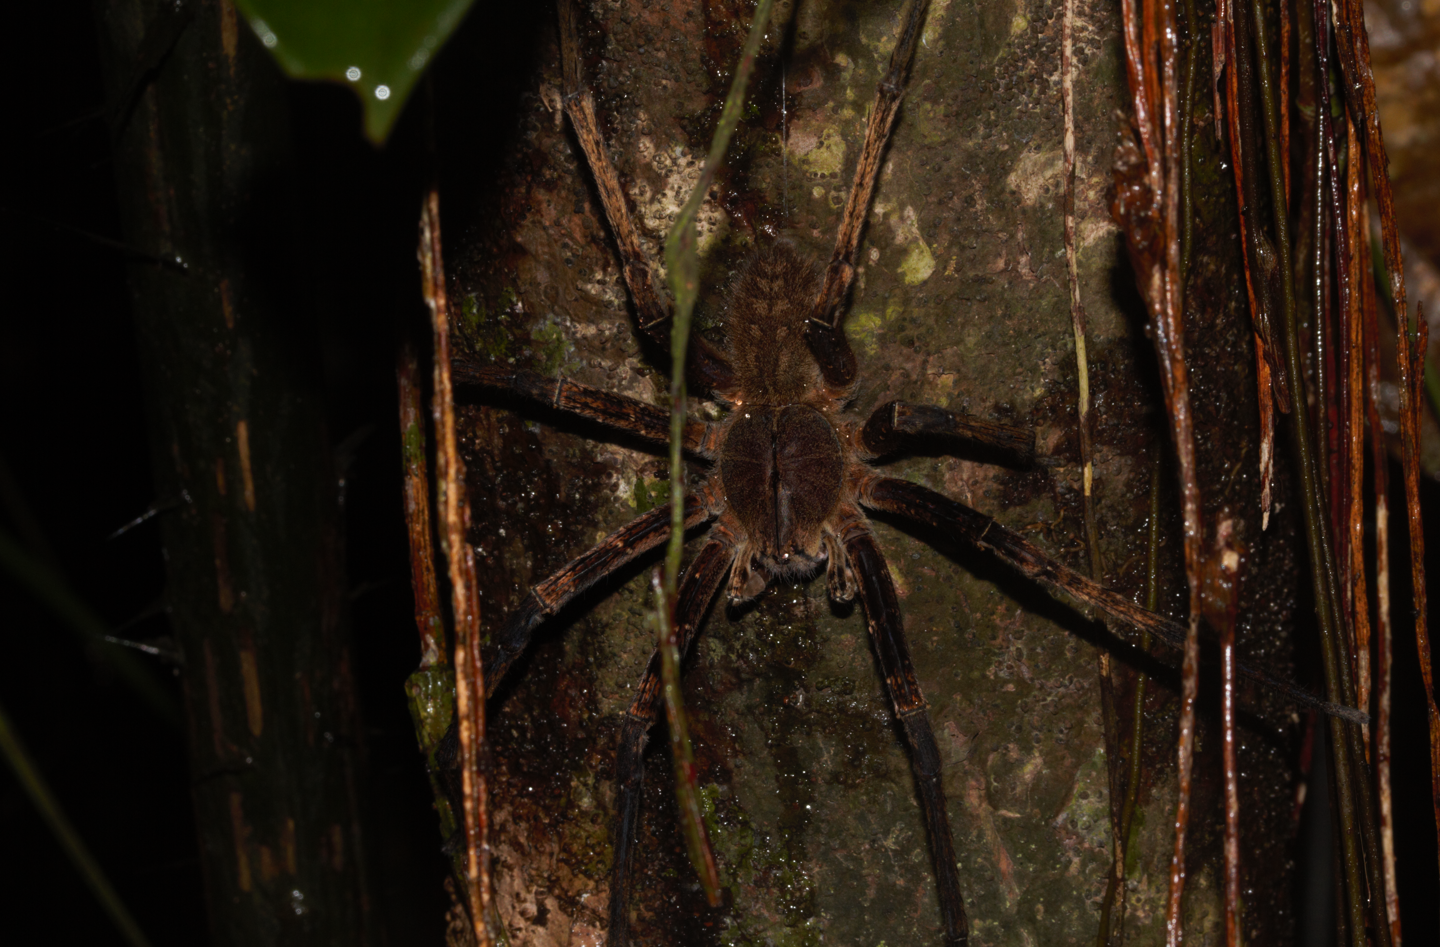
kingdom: Animalia
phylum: Arthropoda
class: Arachnida
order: Araneae
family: Ctenidae
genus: Phoneutria
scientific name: Phoneutria fera
